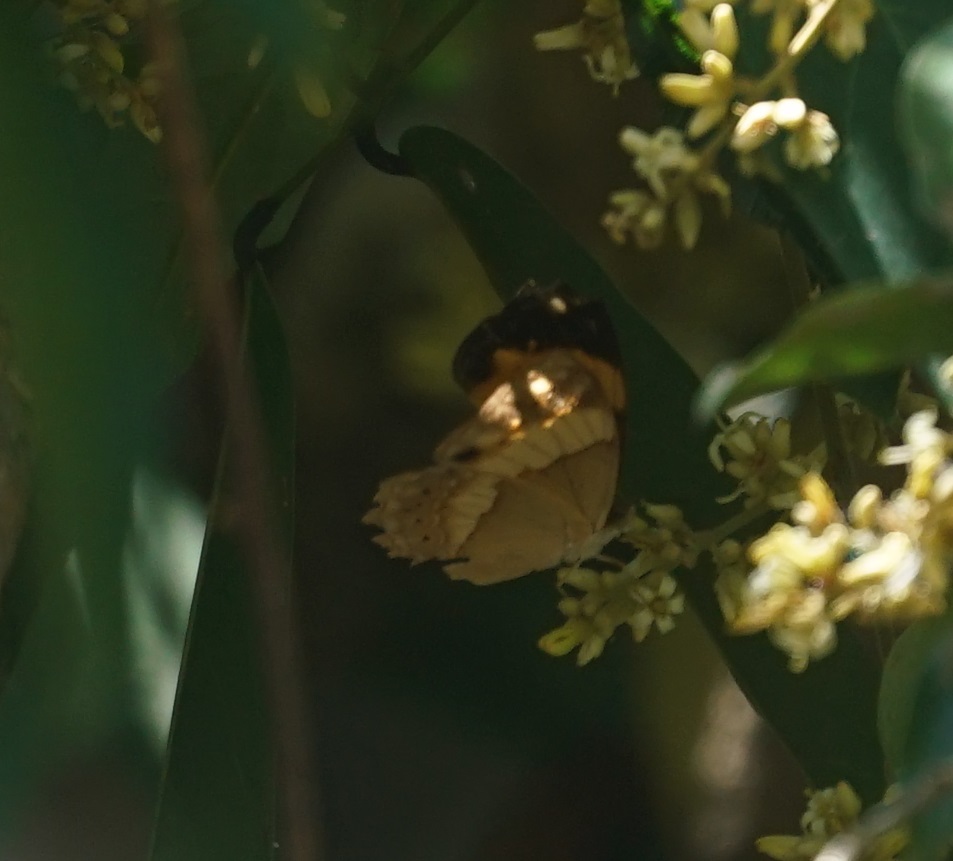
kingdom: Animalia
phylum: Arthropoda
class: Insecta
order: Lepidoptera
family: Nymphalidae
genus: Cupha
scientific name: Cupha prosope
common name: Bordered rustic
